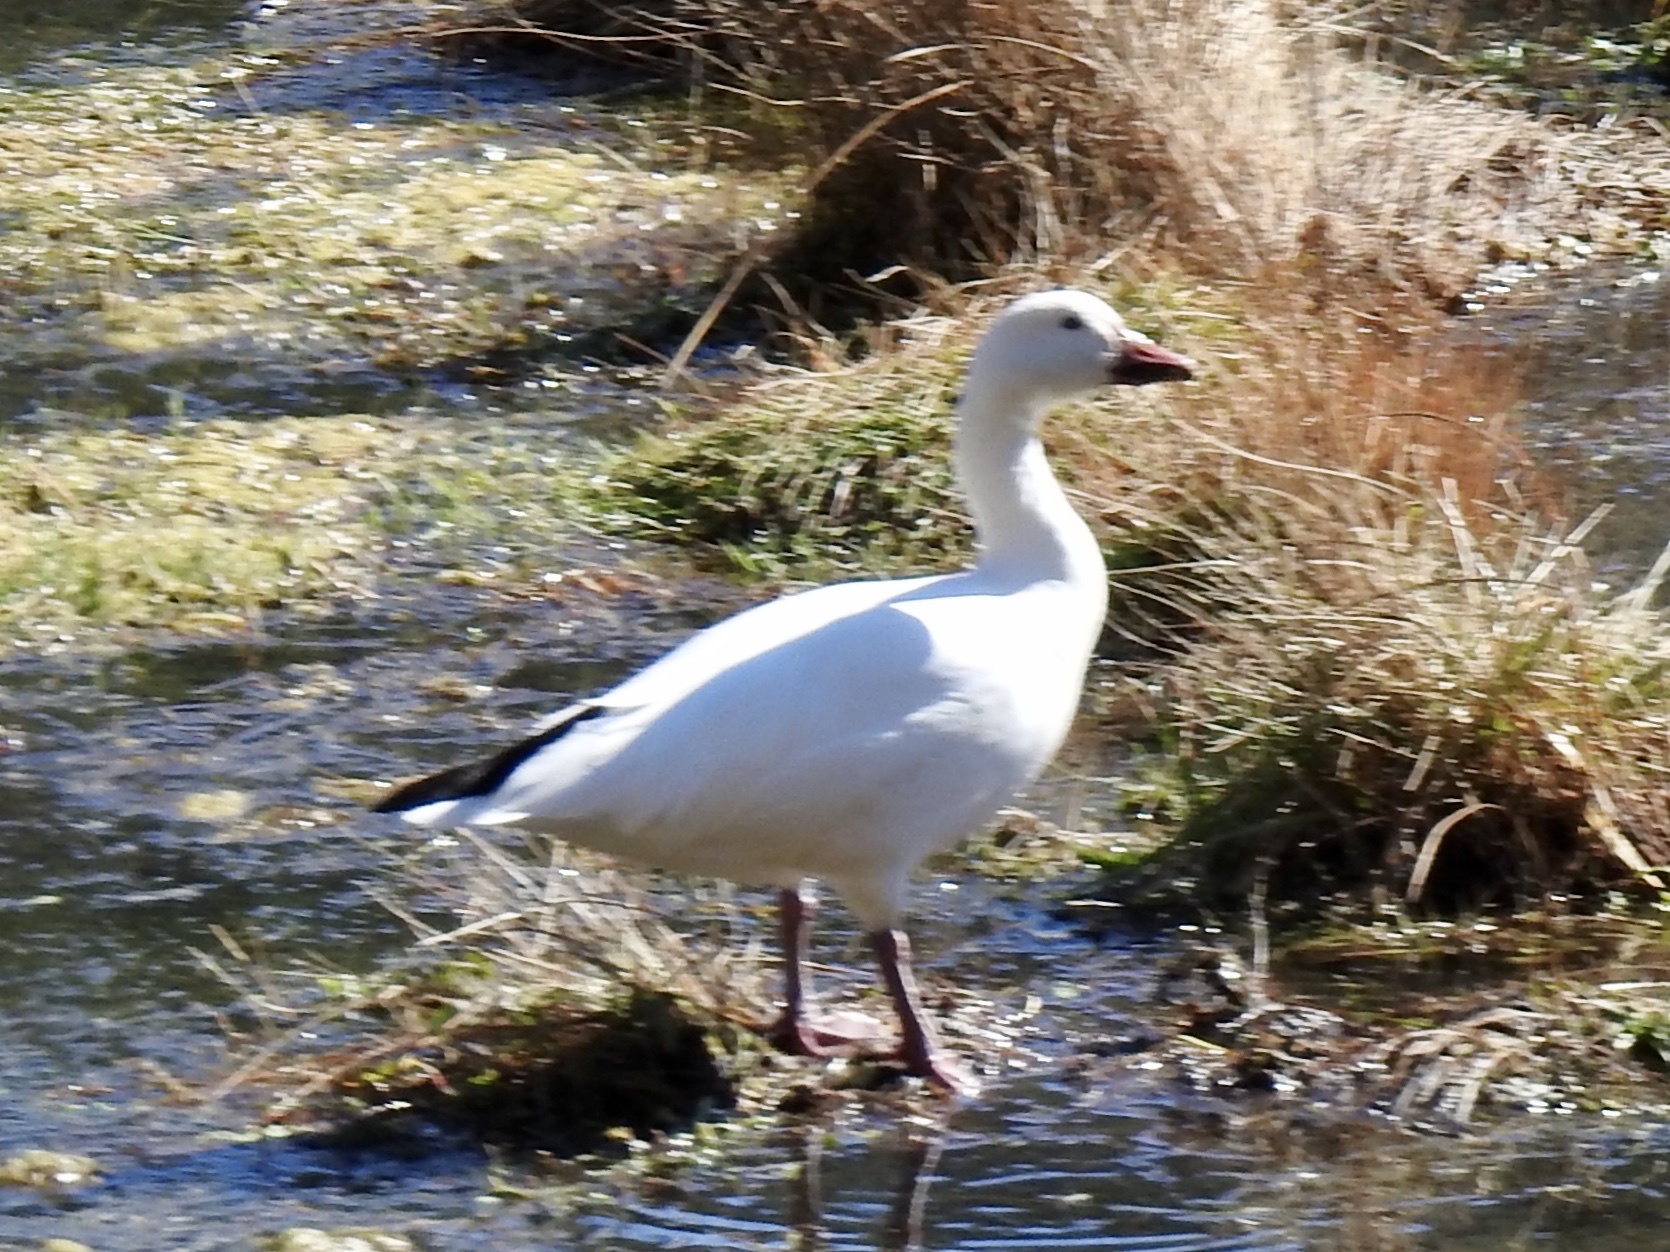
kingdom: Animalia
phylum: Chordata
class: Aves
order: Anseriformes
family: Anatidae
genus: Anser
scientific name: Anser caerulescens
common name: Snow goose
